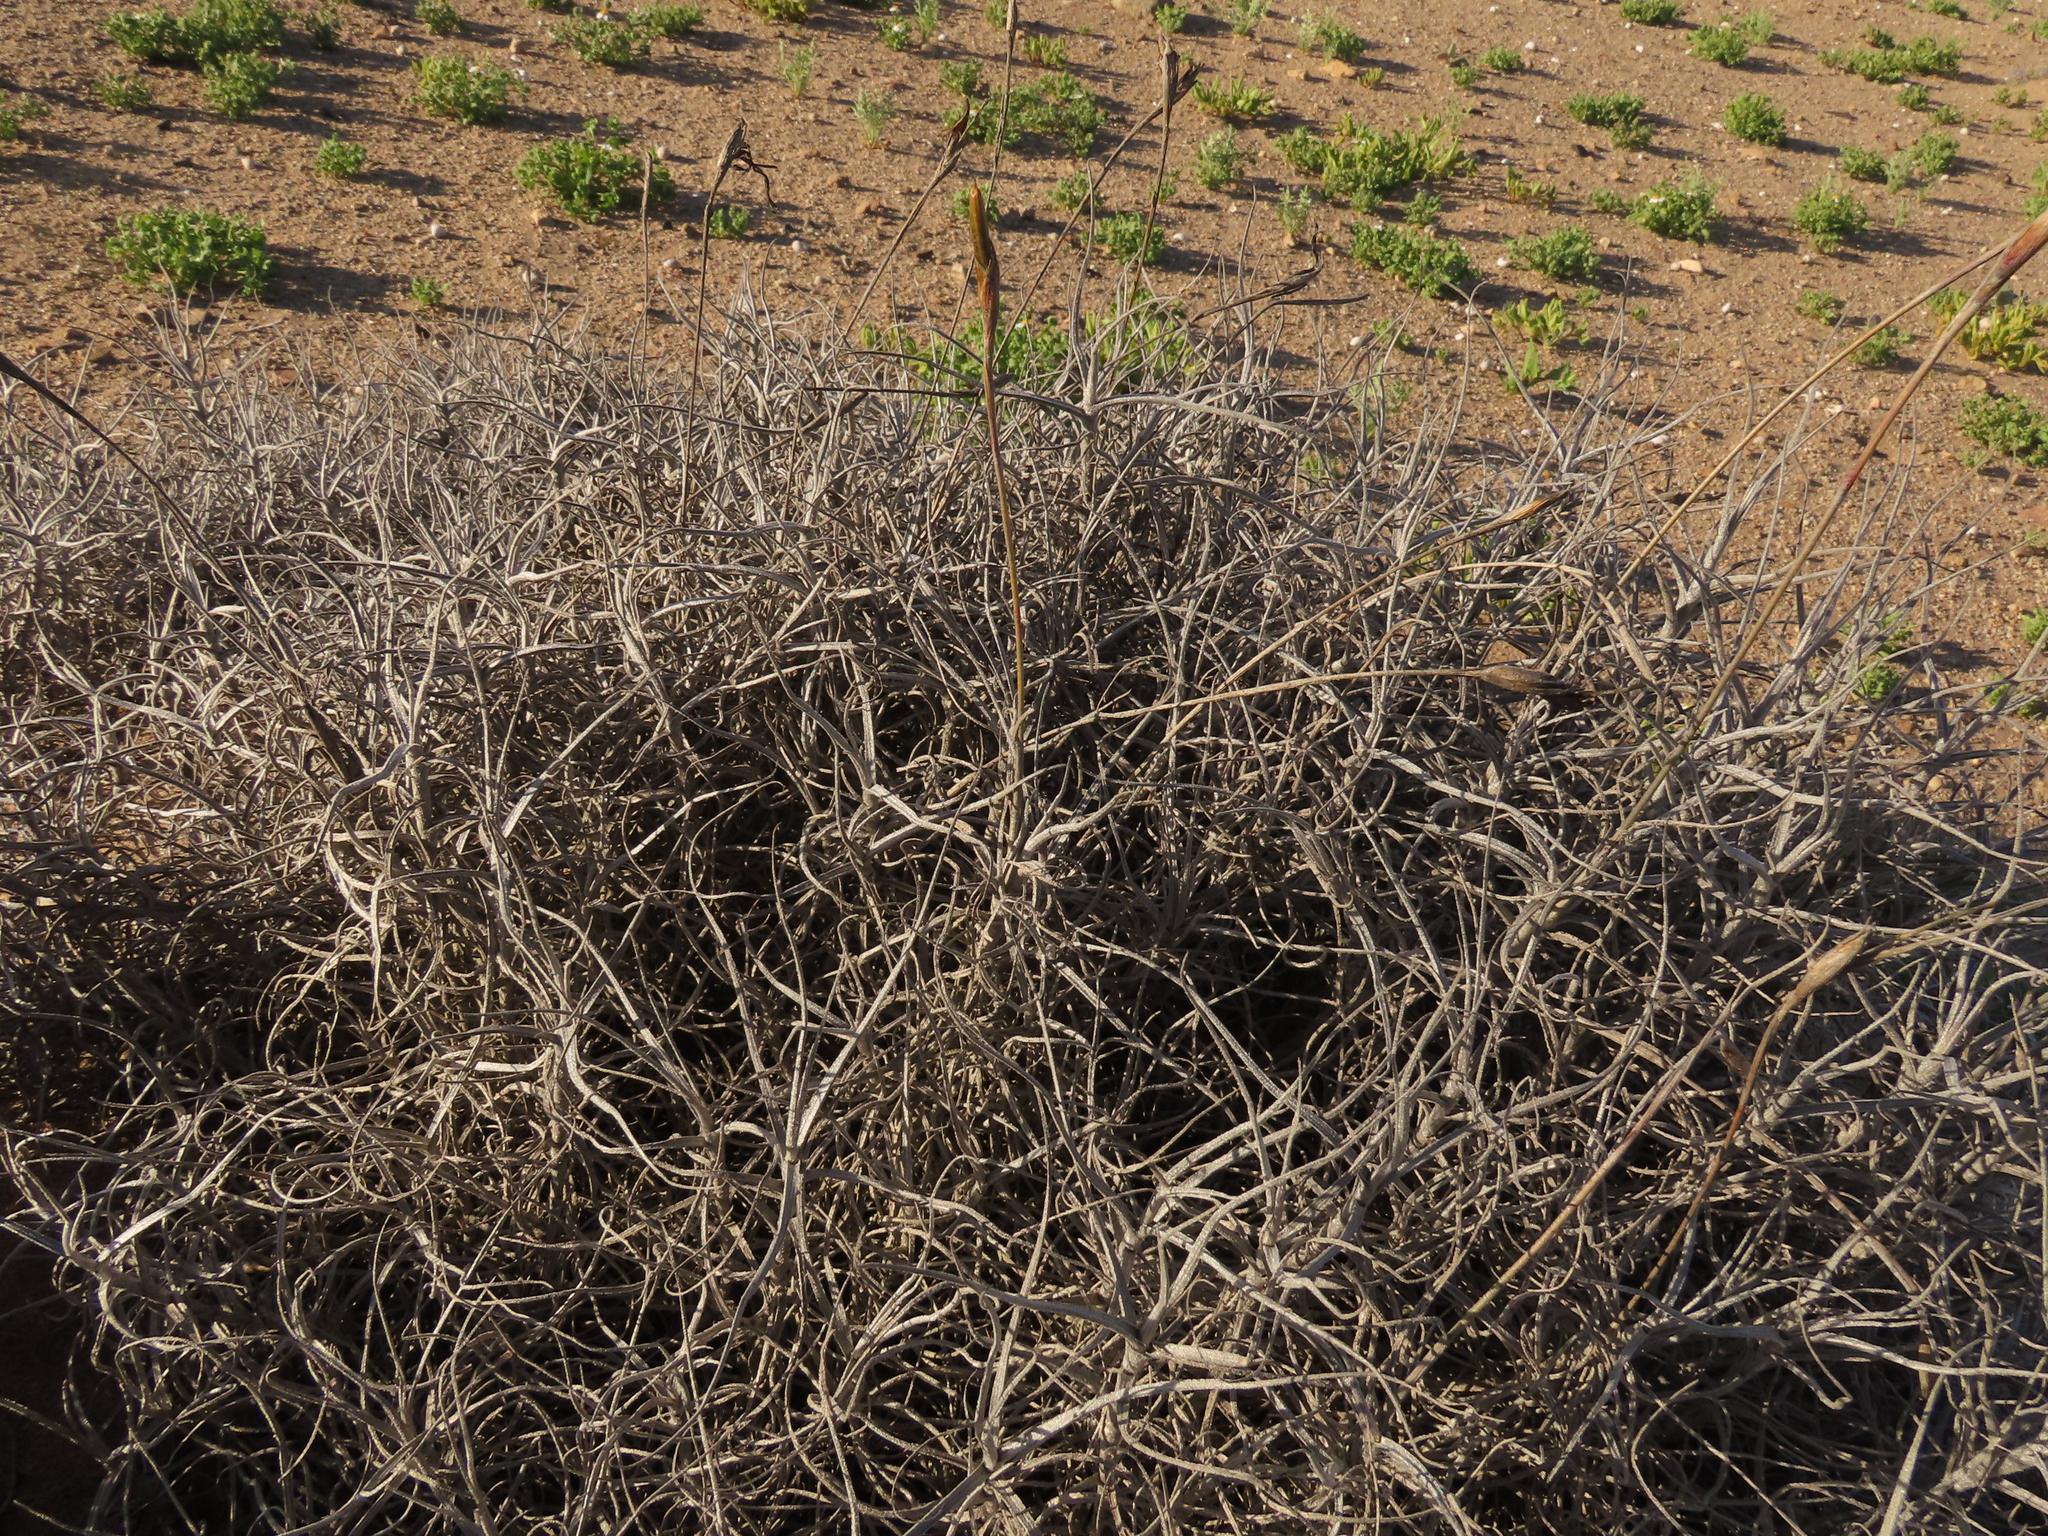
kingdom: Plantae
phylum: Tracheophyta
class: Liliopsida
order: Poales
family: Bromeliaceae
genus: Tillandsia
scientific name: Tillandsia landbeckii
